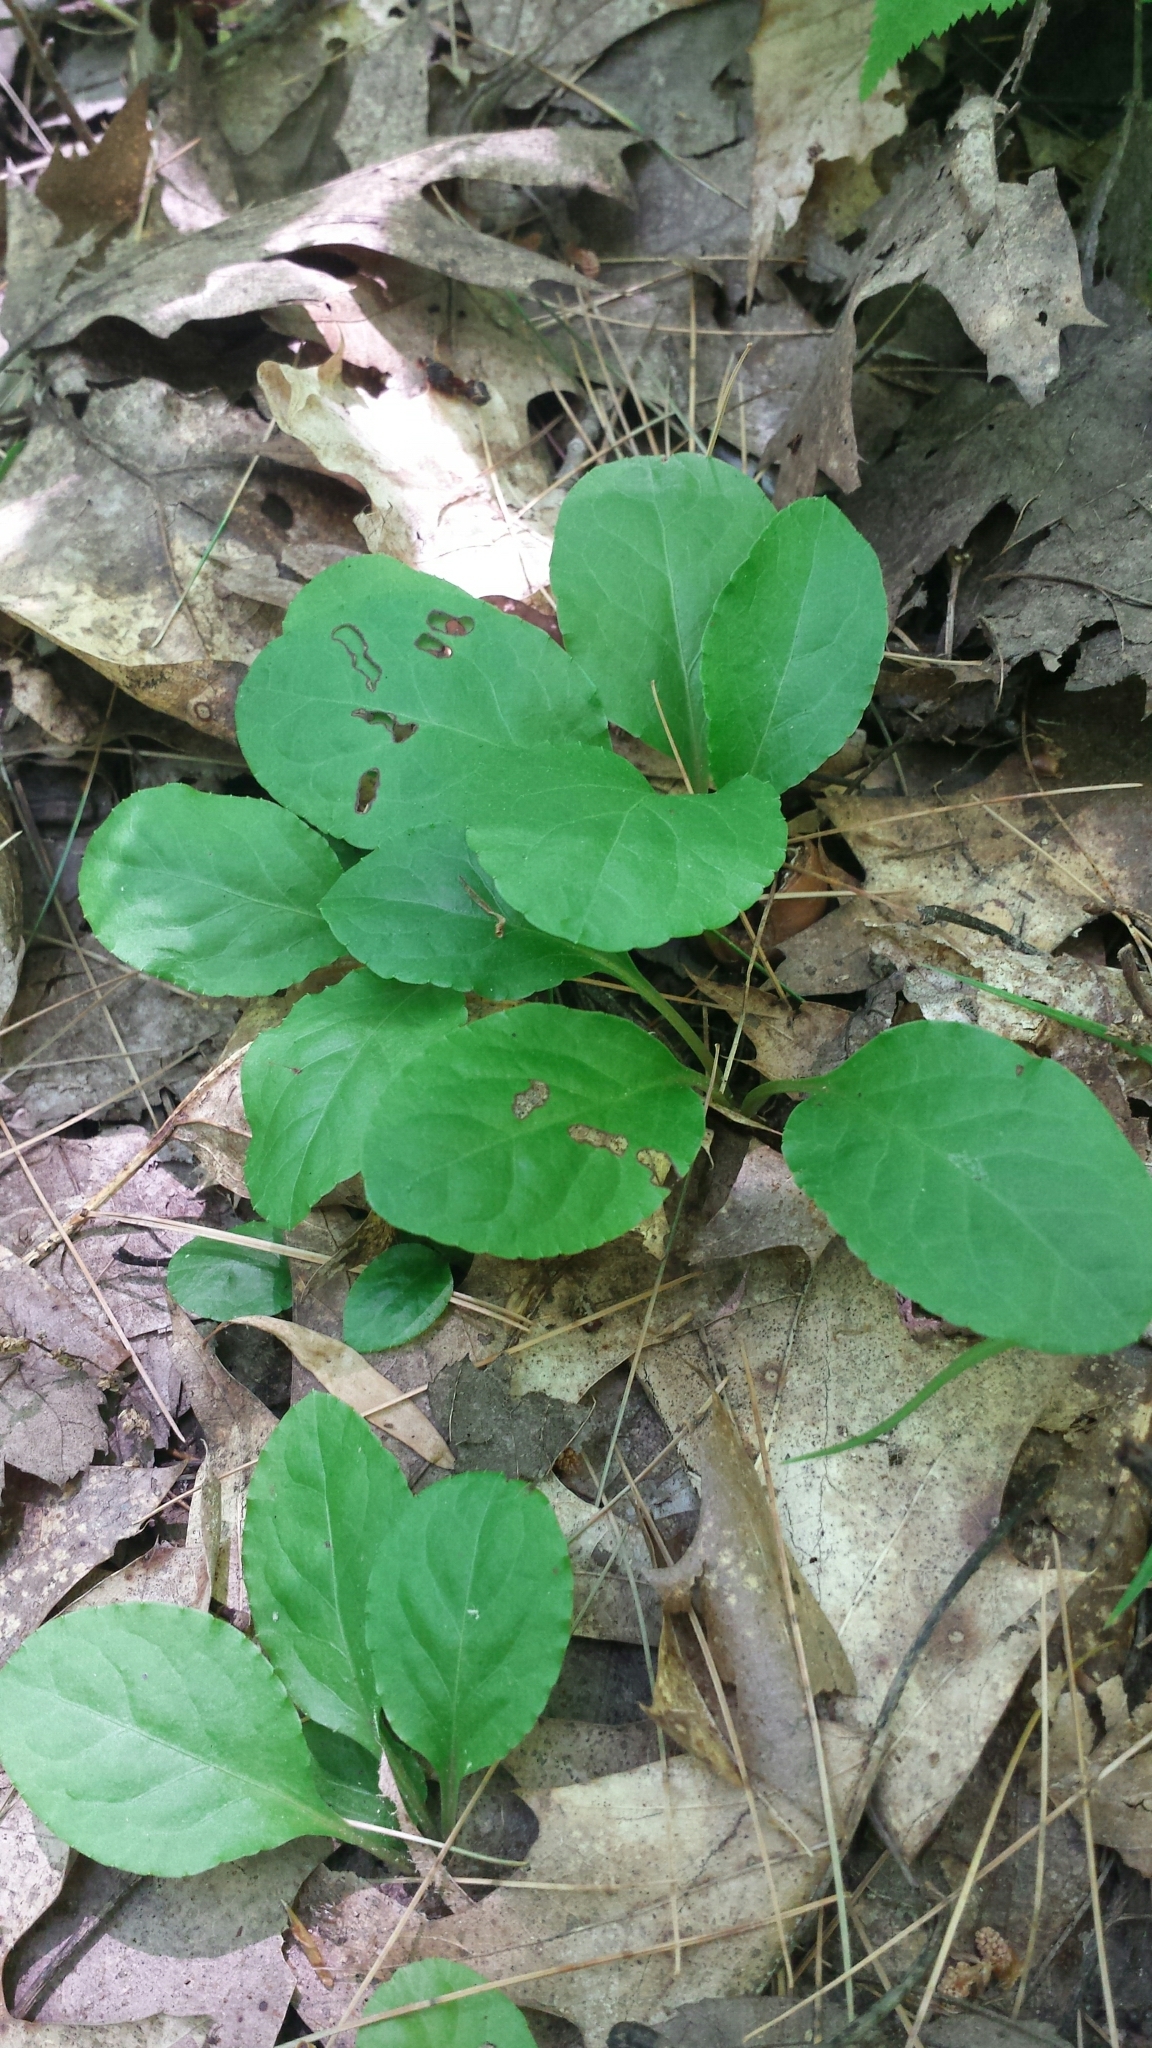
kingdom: Plantae
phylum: Tracheophyta
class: Magnoliopsida
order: Ericales
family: Ericaceae
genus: Pyrola
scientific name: Pyrola elliptica
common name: Shinleaf
